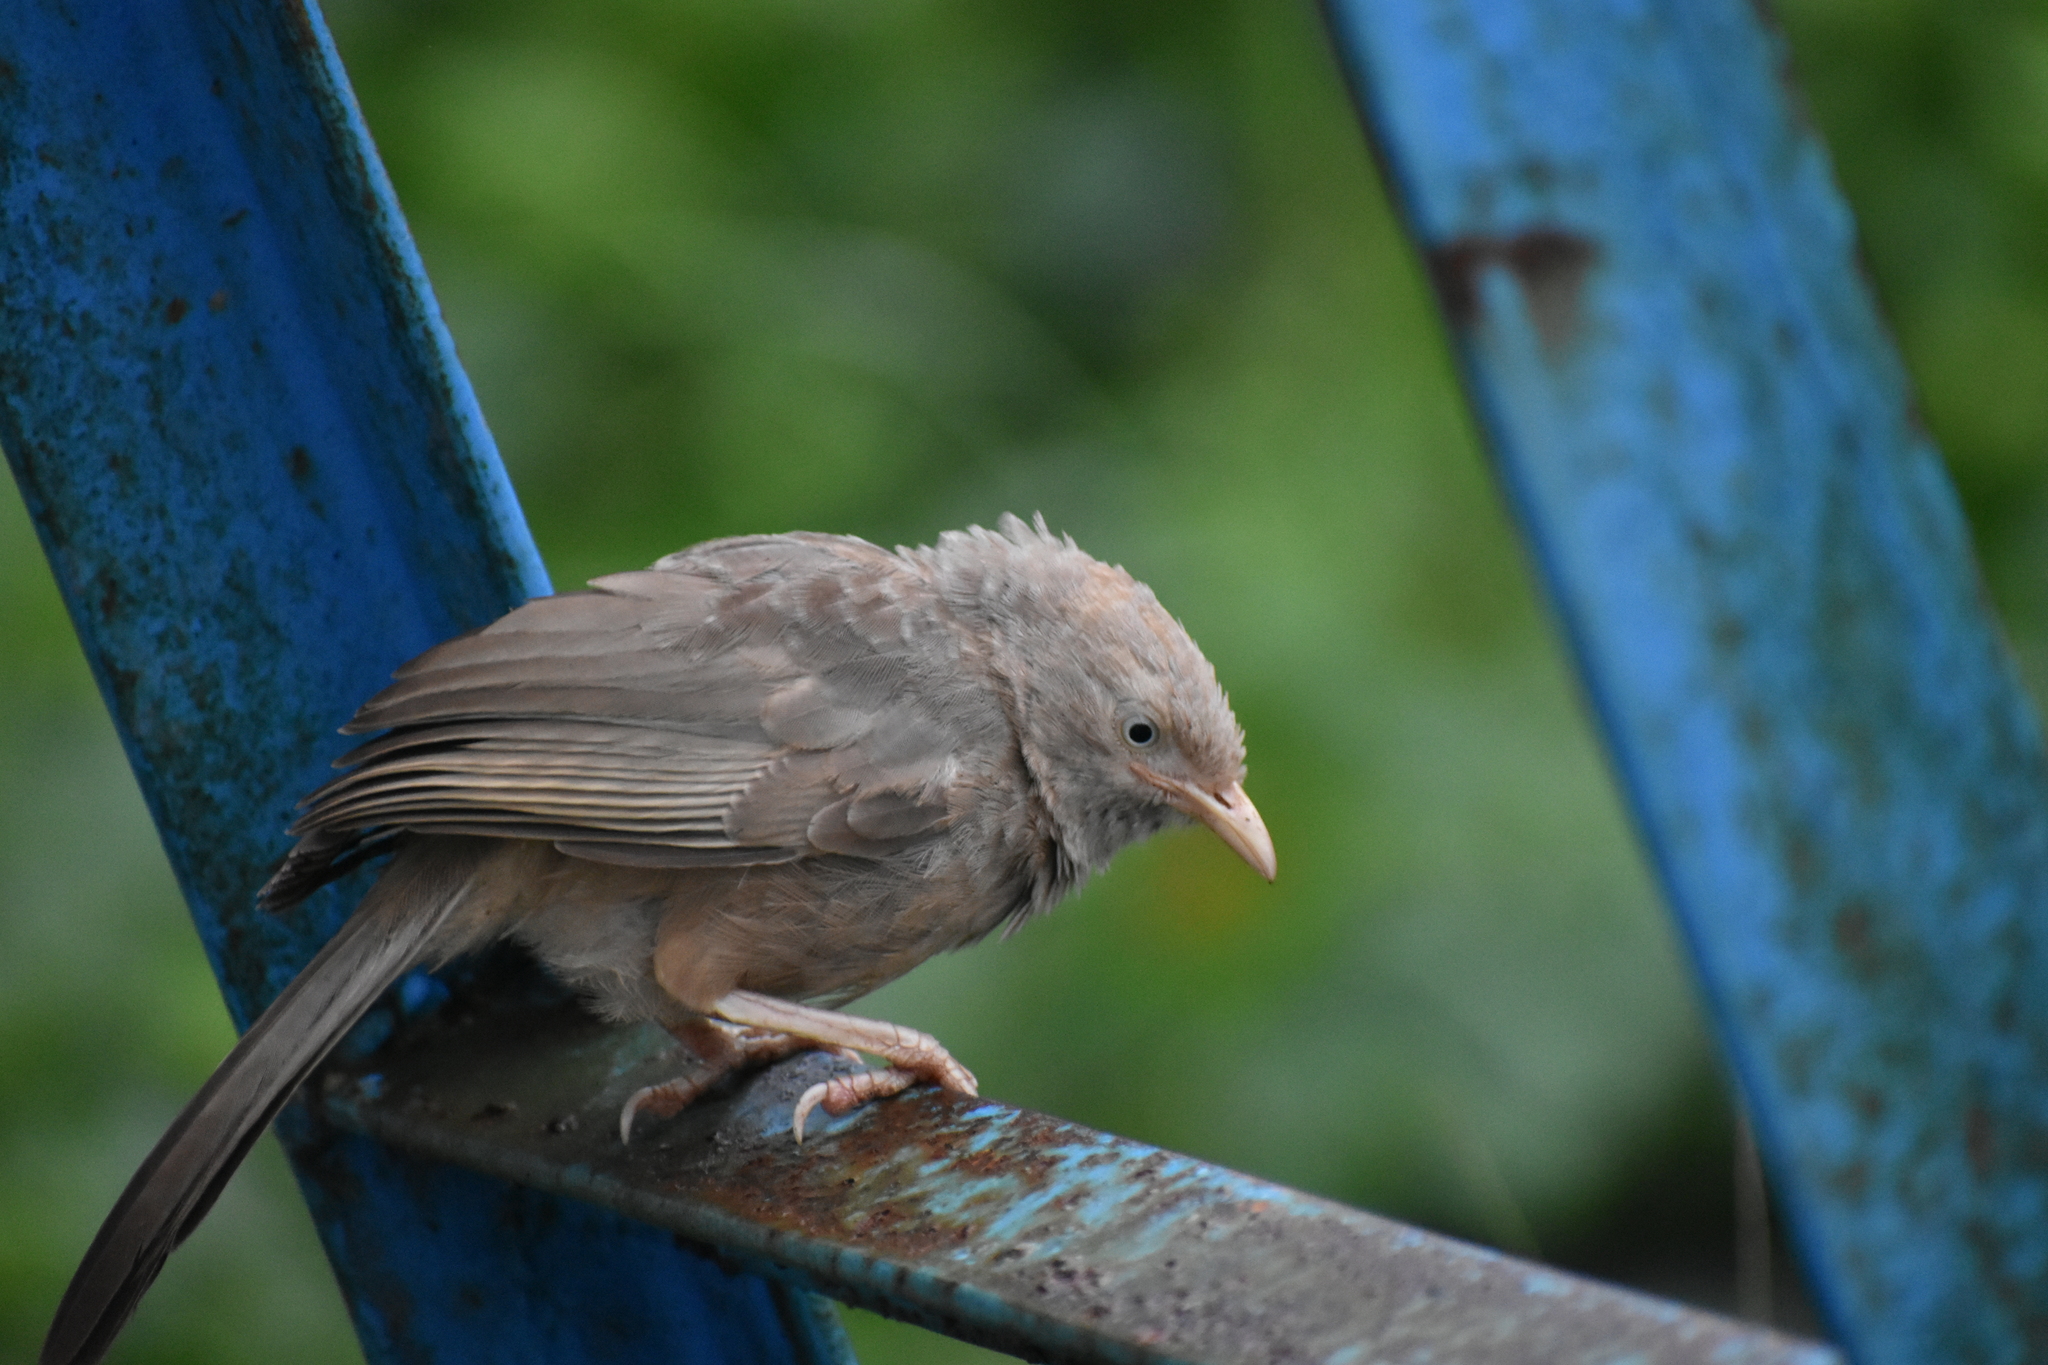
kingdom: Animalia
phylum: Chordata
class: Aves
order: Passeriformes
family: Leiothrichidae
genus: Turdoides
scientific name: Turdoides striata
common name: Jungle babbler
